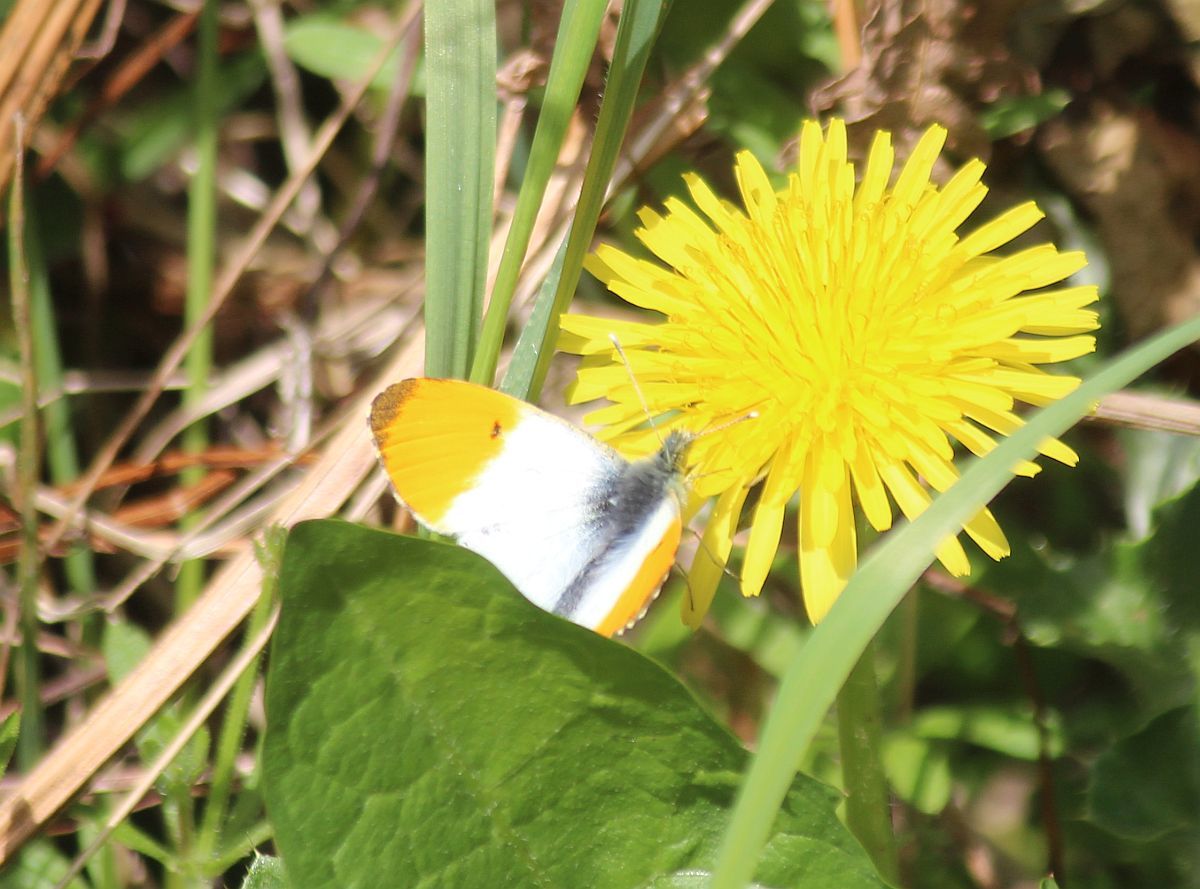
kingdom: Animalia
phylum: Arthropoda
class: Insecta
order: Lepidoptera
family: Pieridae
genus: Anthocharis
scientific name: Anthocharis cardamines
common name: Orange-tip
